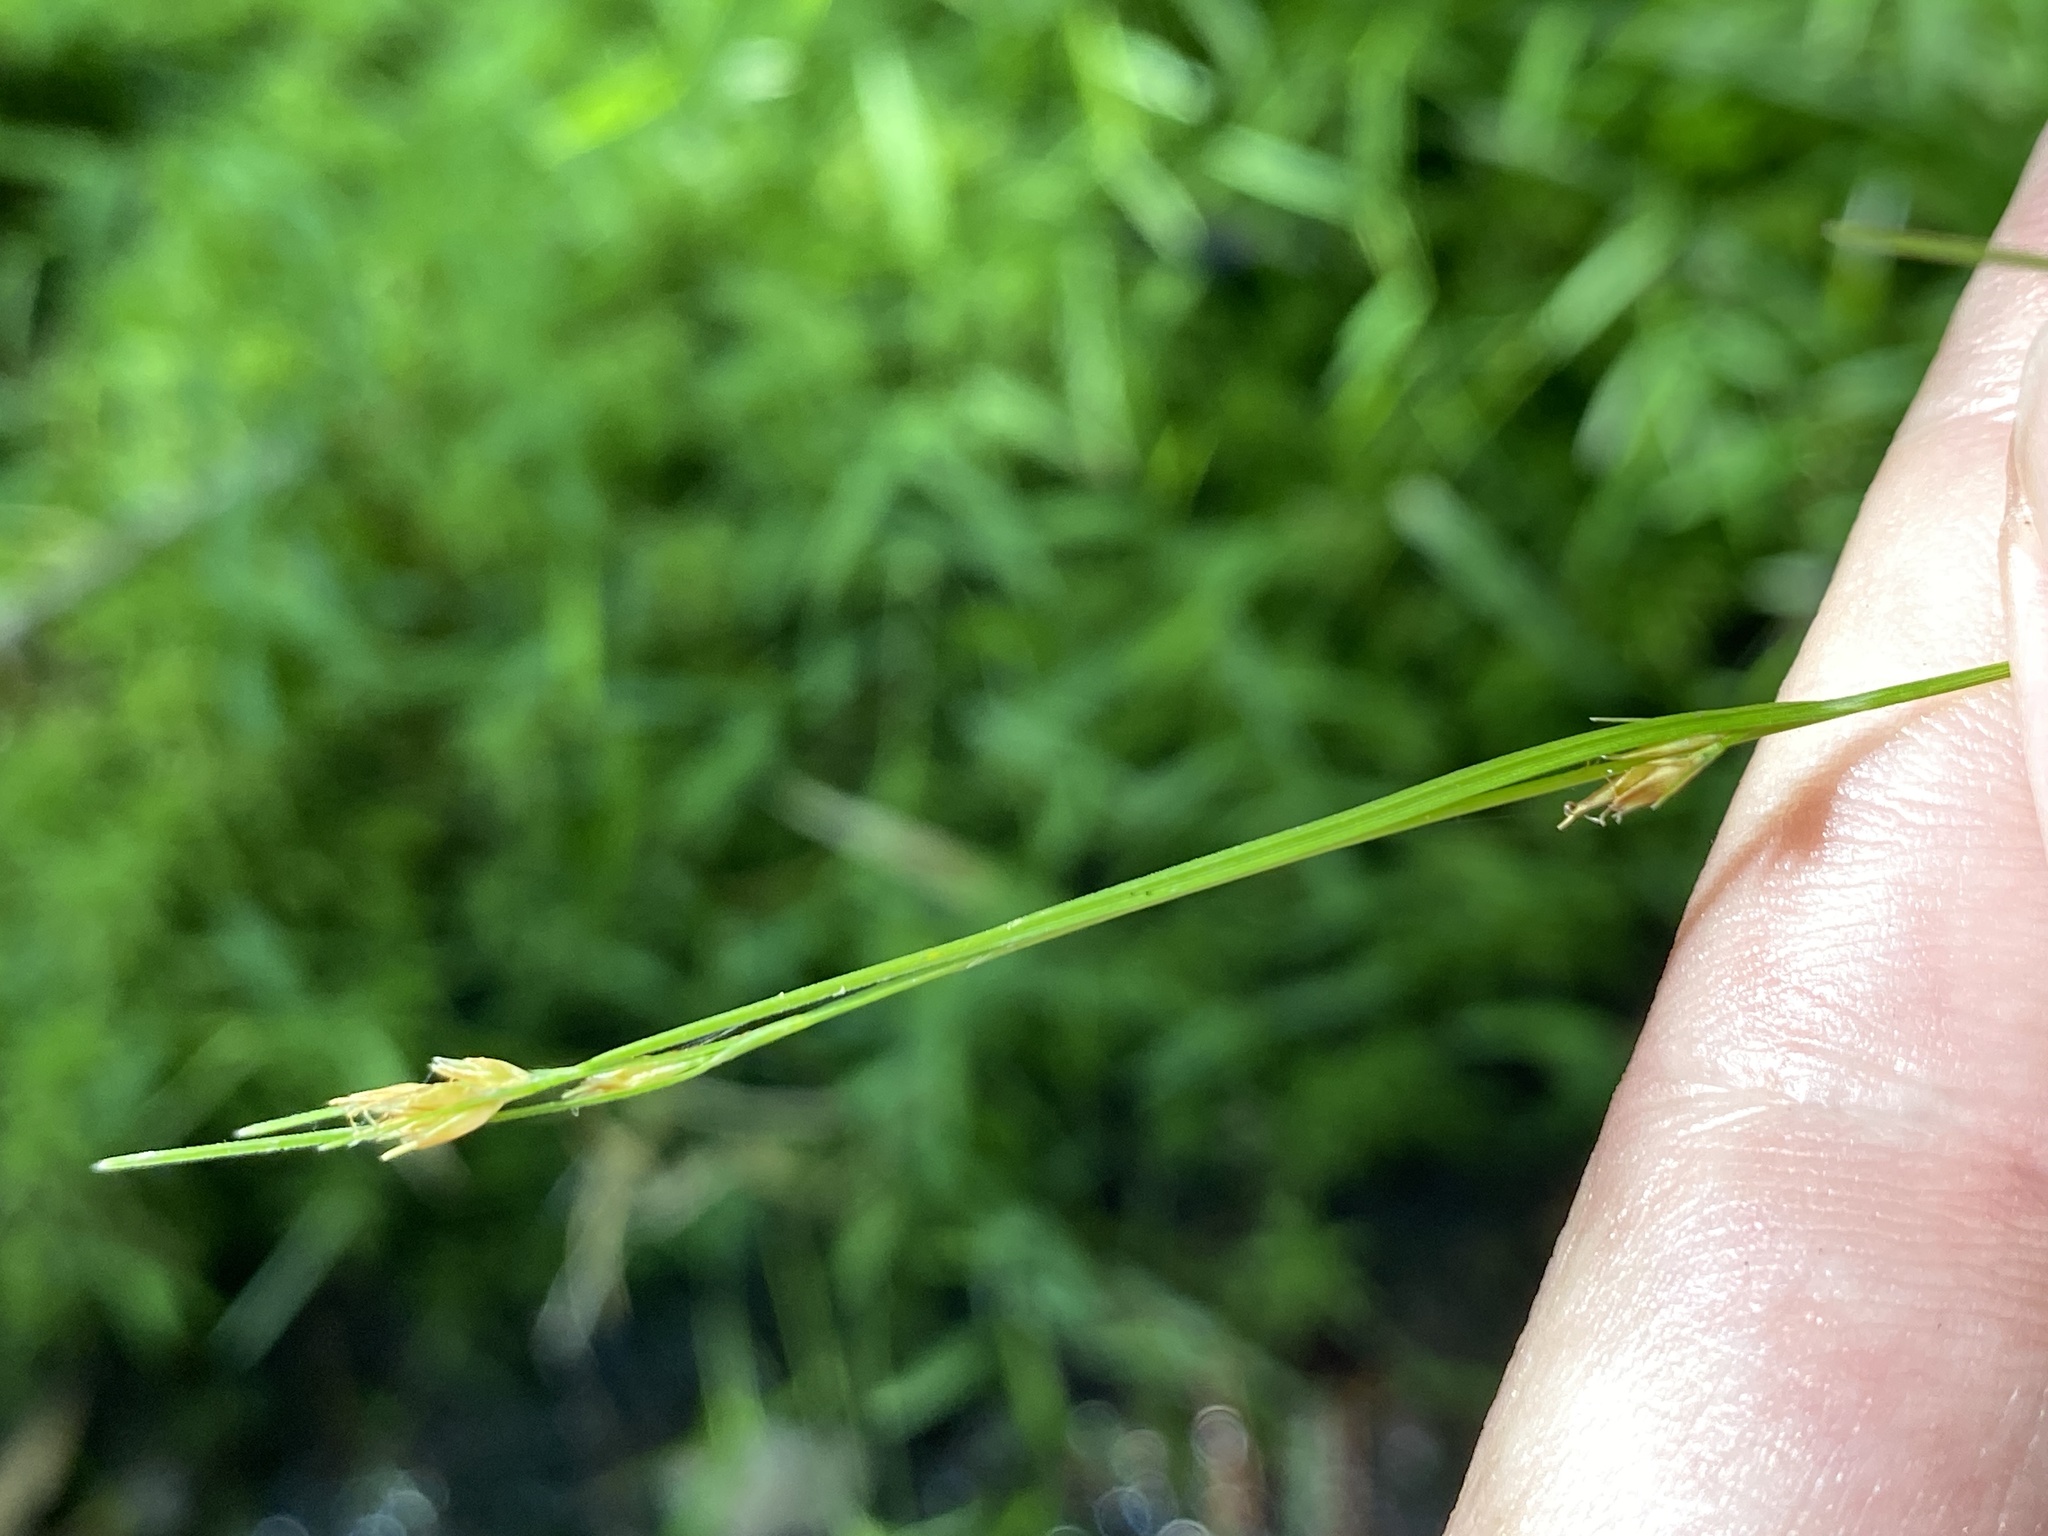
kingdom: Plantae
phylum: Tracheophyta
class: Liliopsida
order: Poales
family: Cyperaceae
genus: Rhynchospora
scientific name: Rhynchospora leptocarpa
